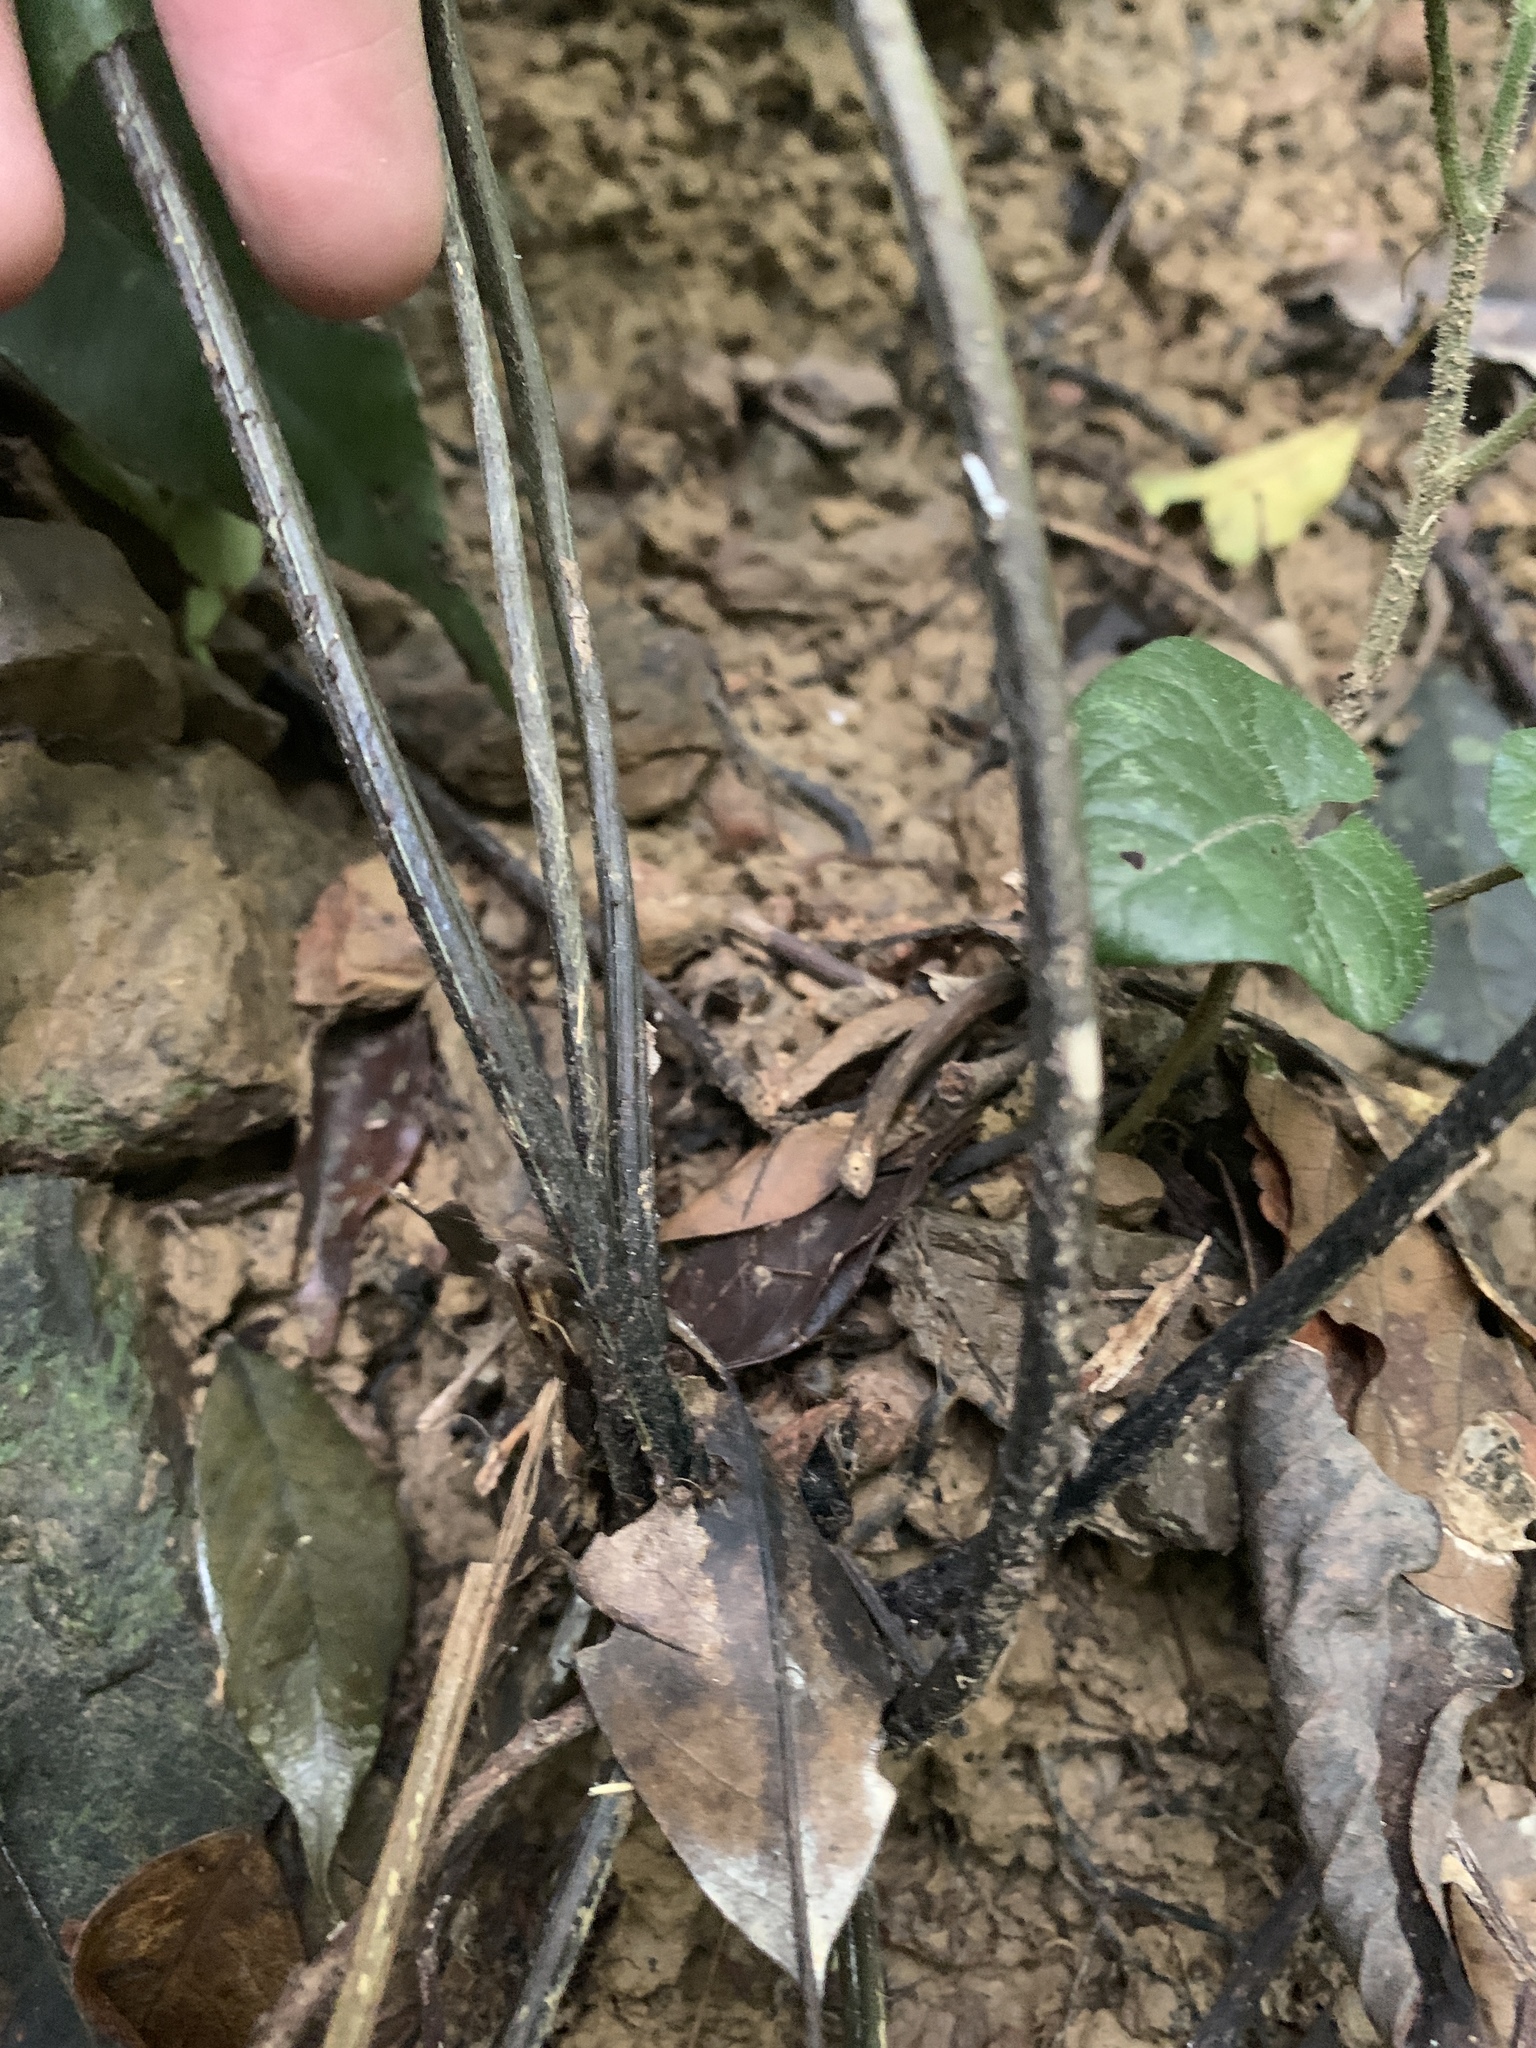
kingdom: Plantae
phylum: Tracheophyta
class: Polypodiopsida
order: Polypodiales
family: Athyriaceae
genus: Diplazium
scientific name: Diplazium lineolatum
